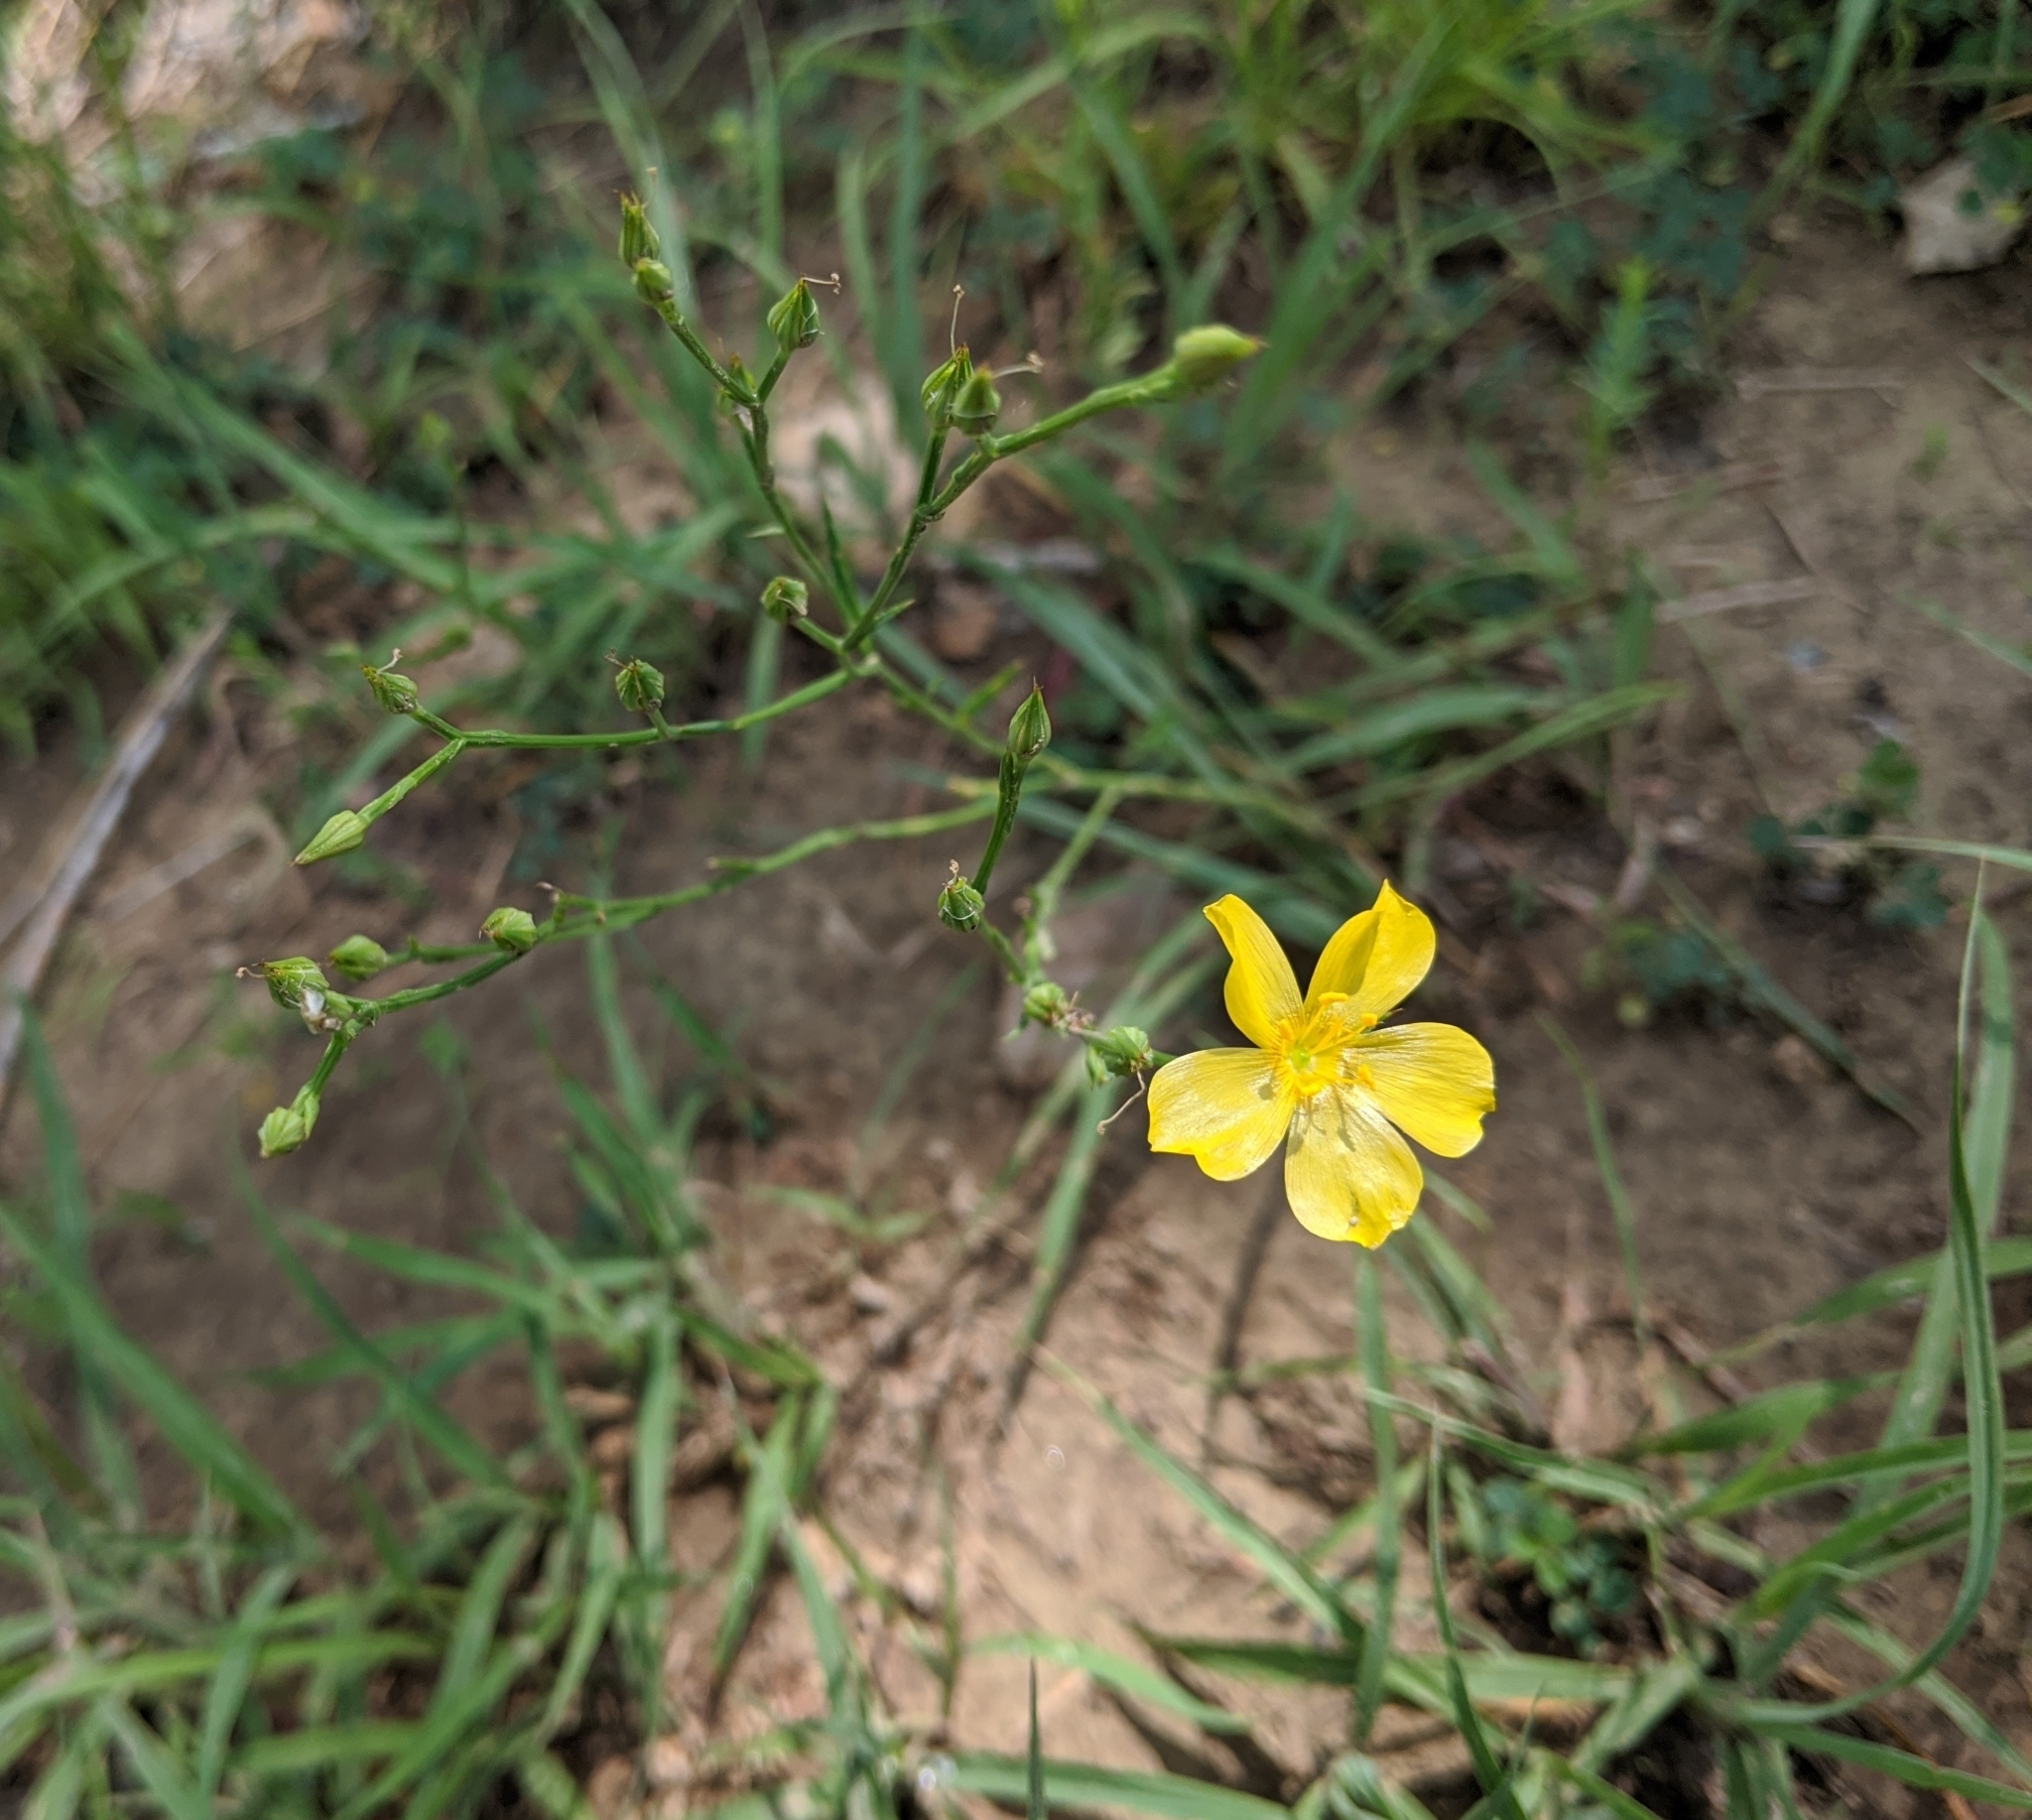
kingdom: Plantae
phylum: Tracheophyta
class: Magnoliopsida
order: Malpighiales
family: Linaceae
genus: Linum
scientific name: Linum sulcatum
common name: Grooved flax
